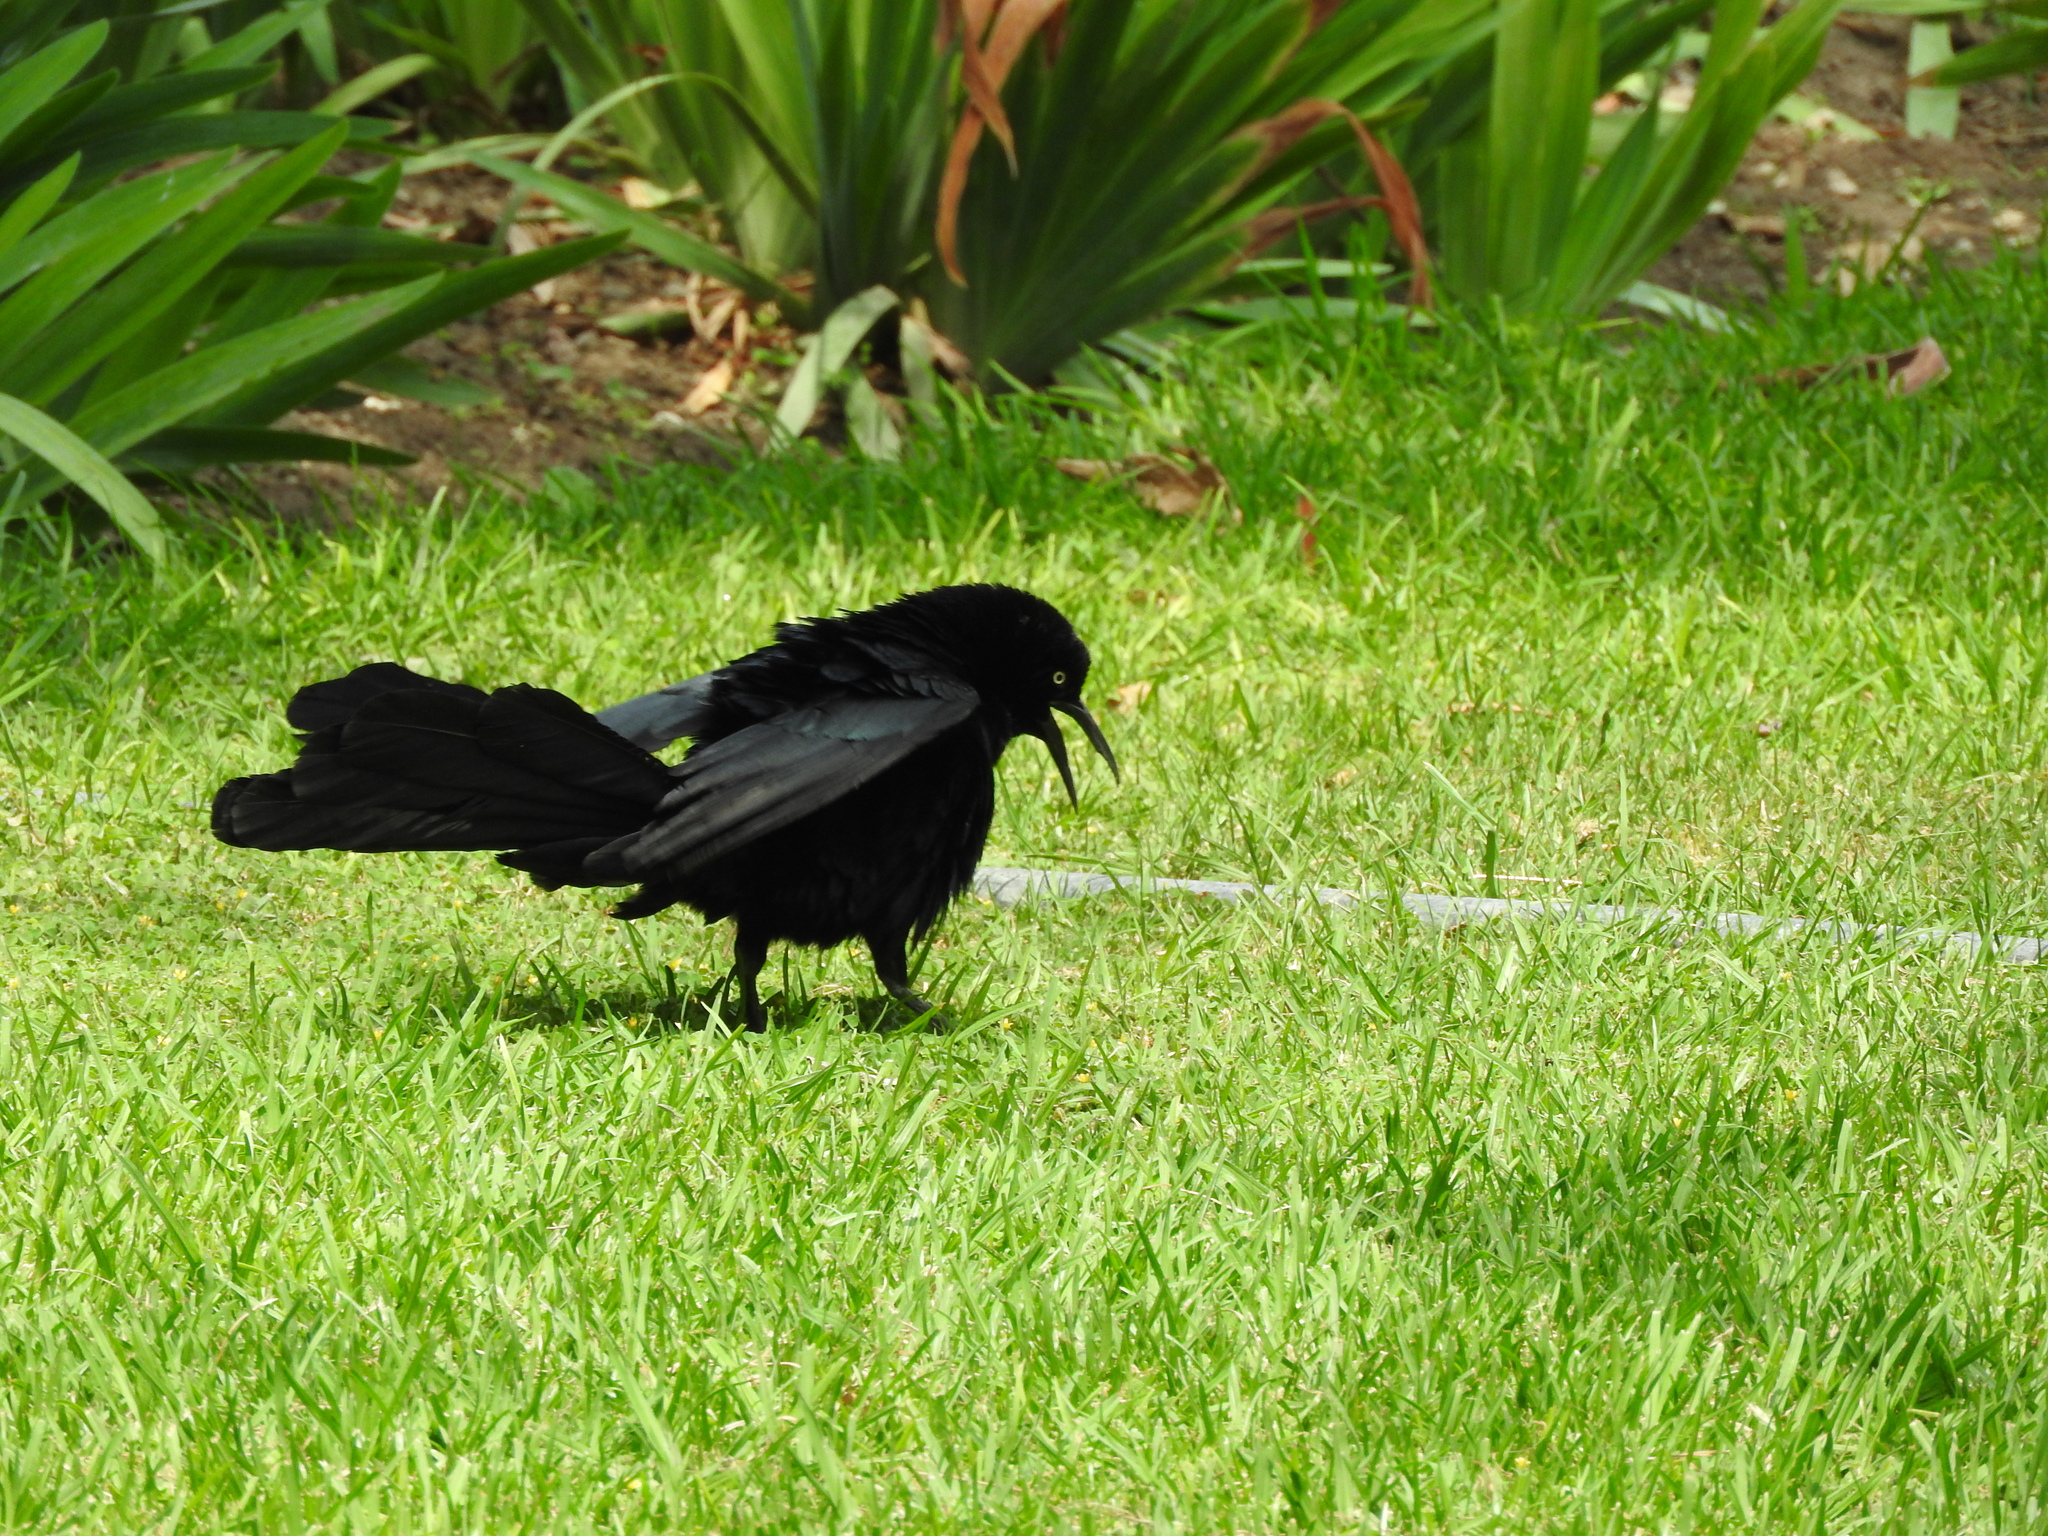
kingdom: Animalia
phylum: Chordata
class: Aves
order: Passeriformes
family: Icteridae
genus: Quiscalus
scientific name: Quiscalus mexicanus
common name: Great-tailed grackle
